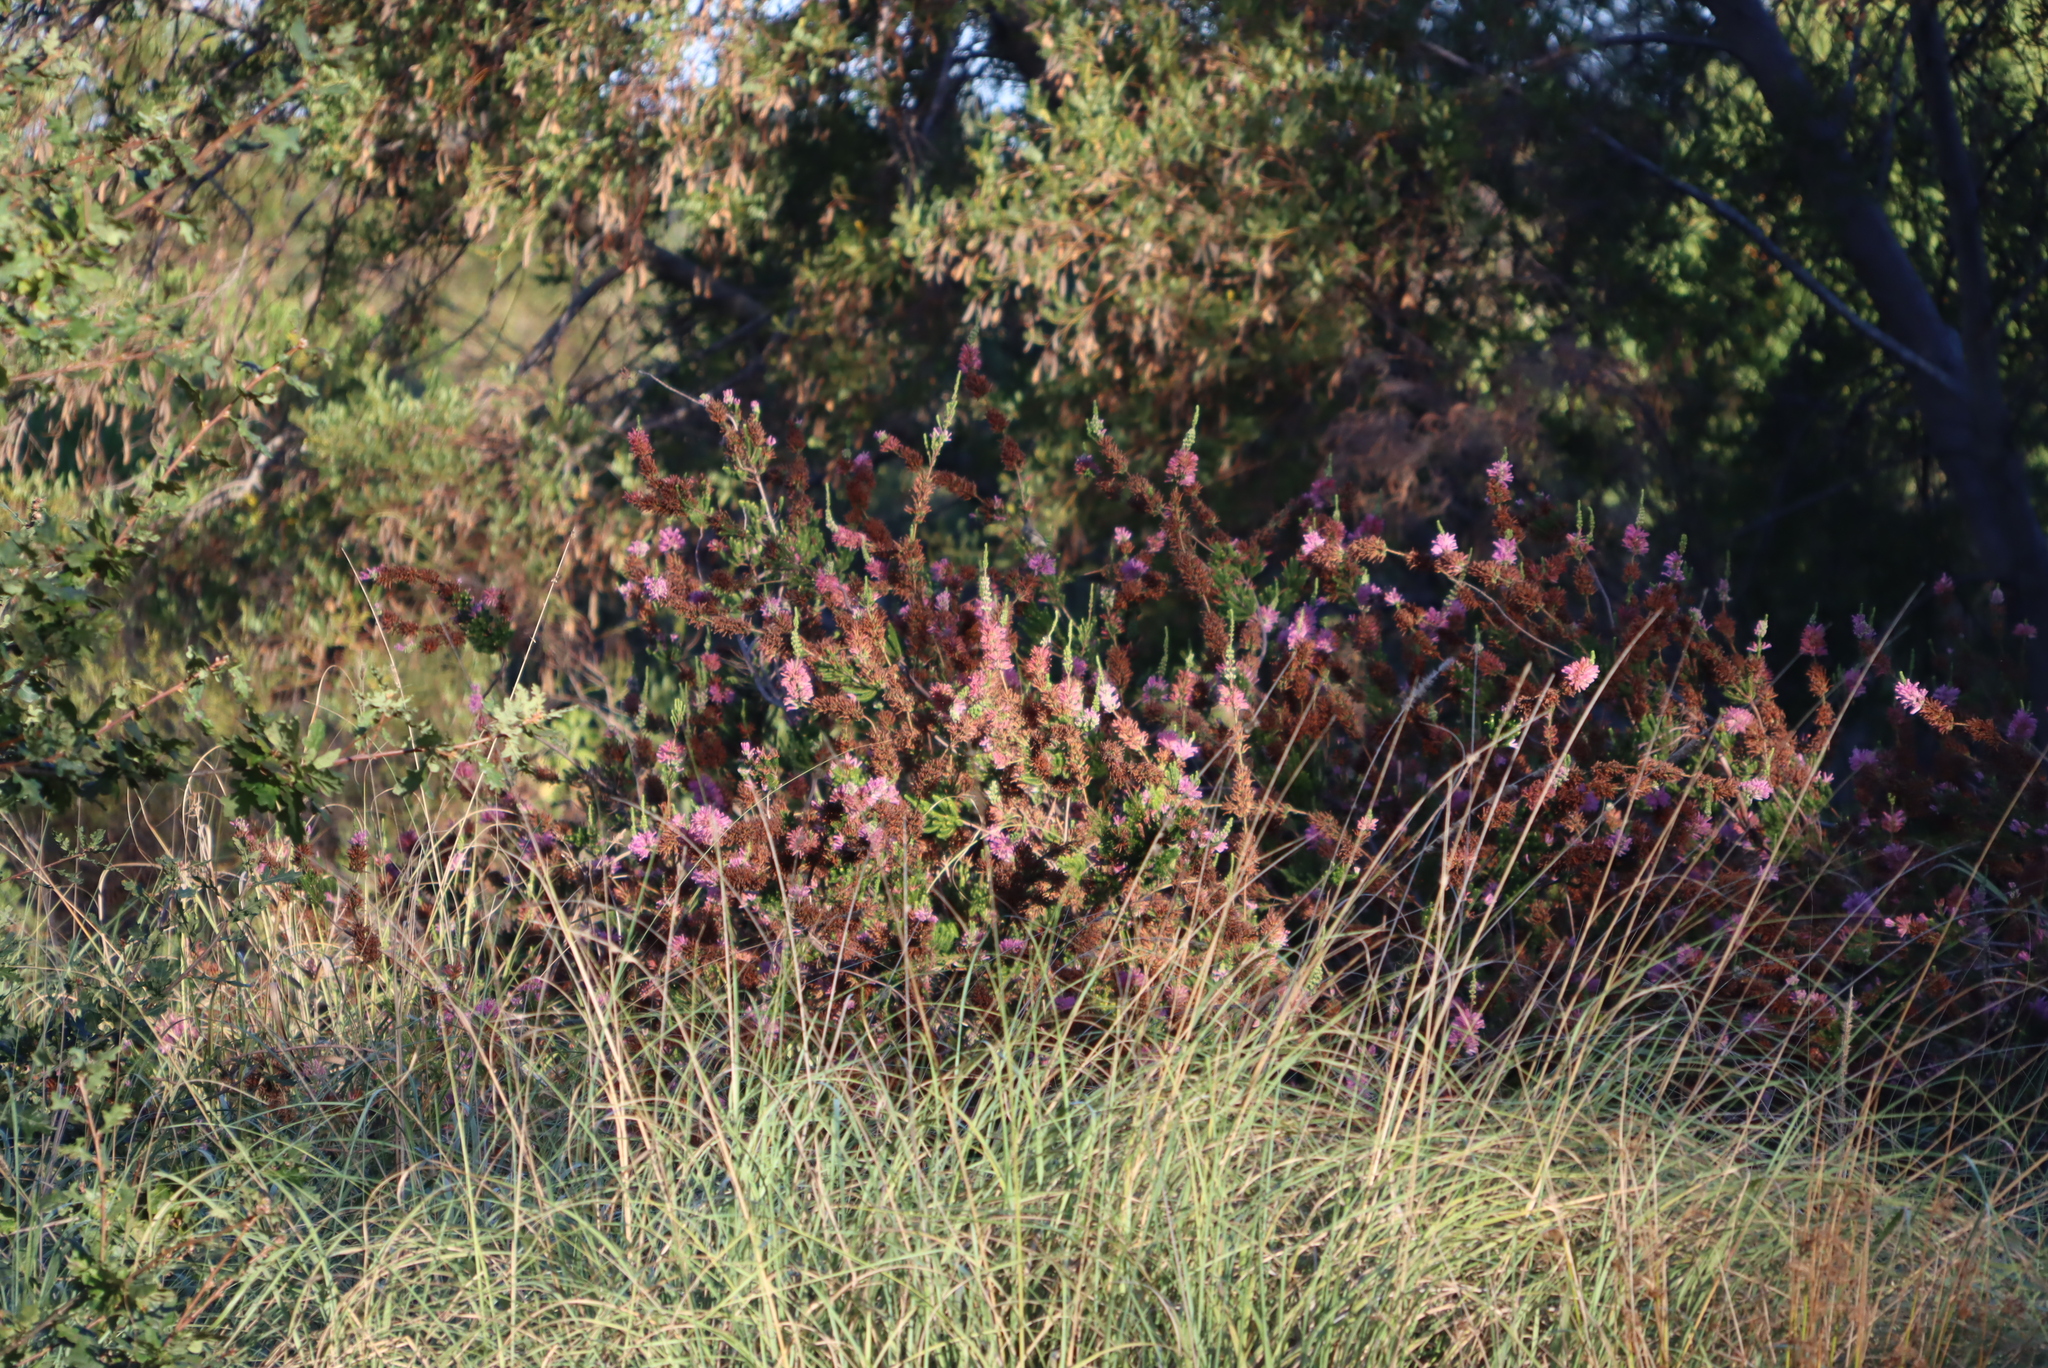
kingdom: Plantae
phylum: Tracheophyta
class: Magnoliopsida
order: Ericales
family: Ericaceae
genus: Erica
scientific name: Erica verticillata
